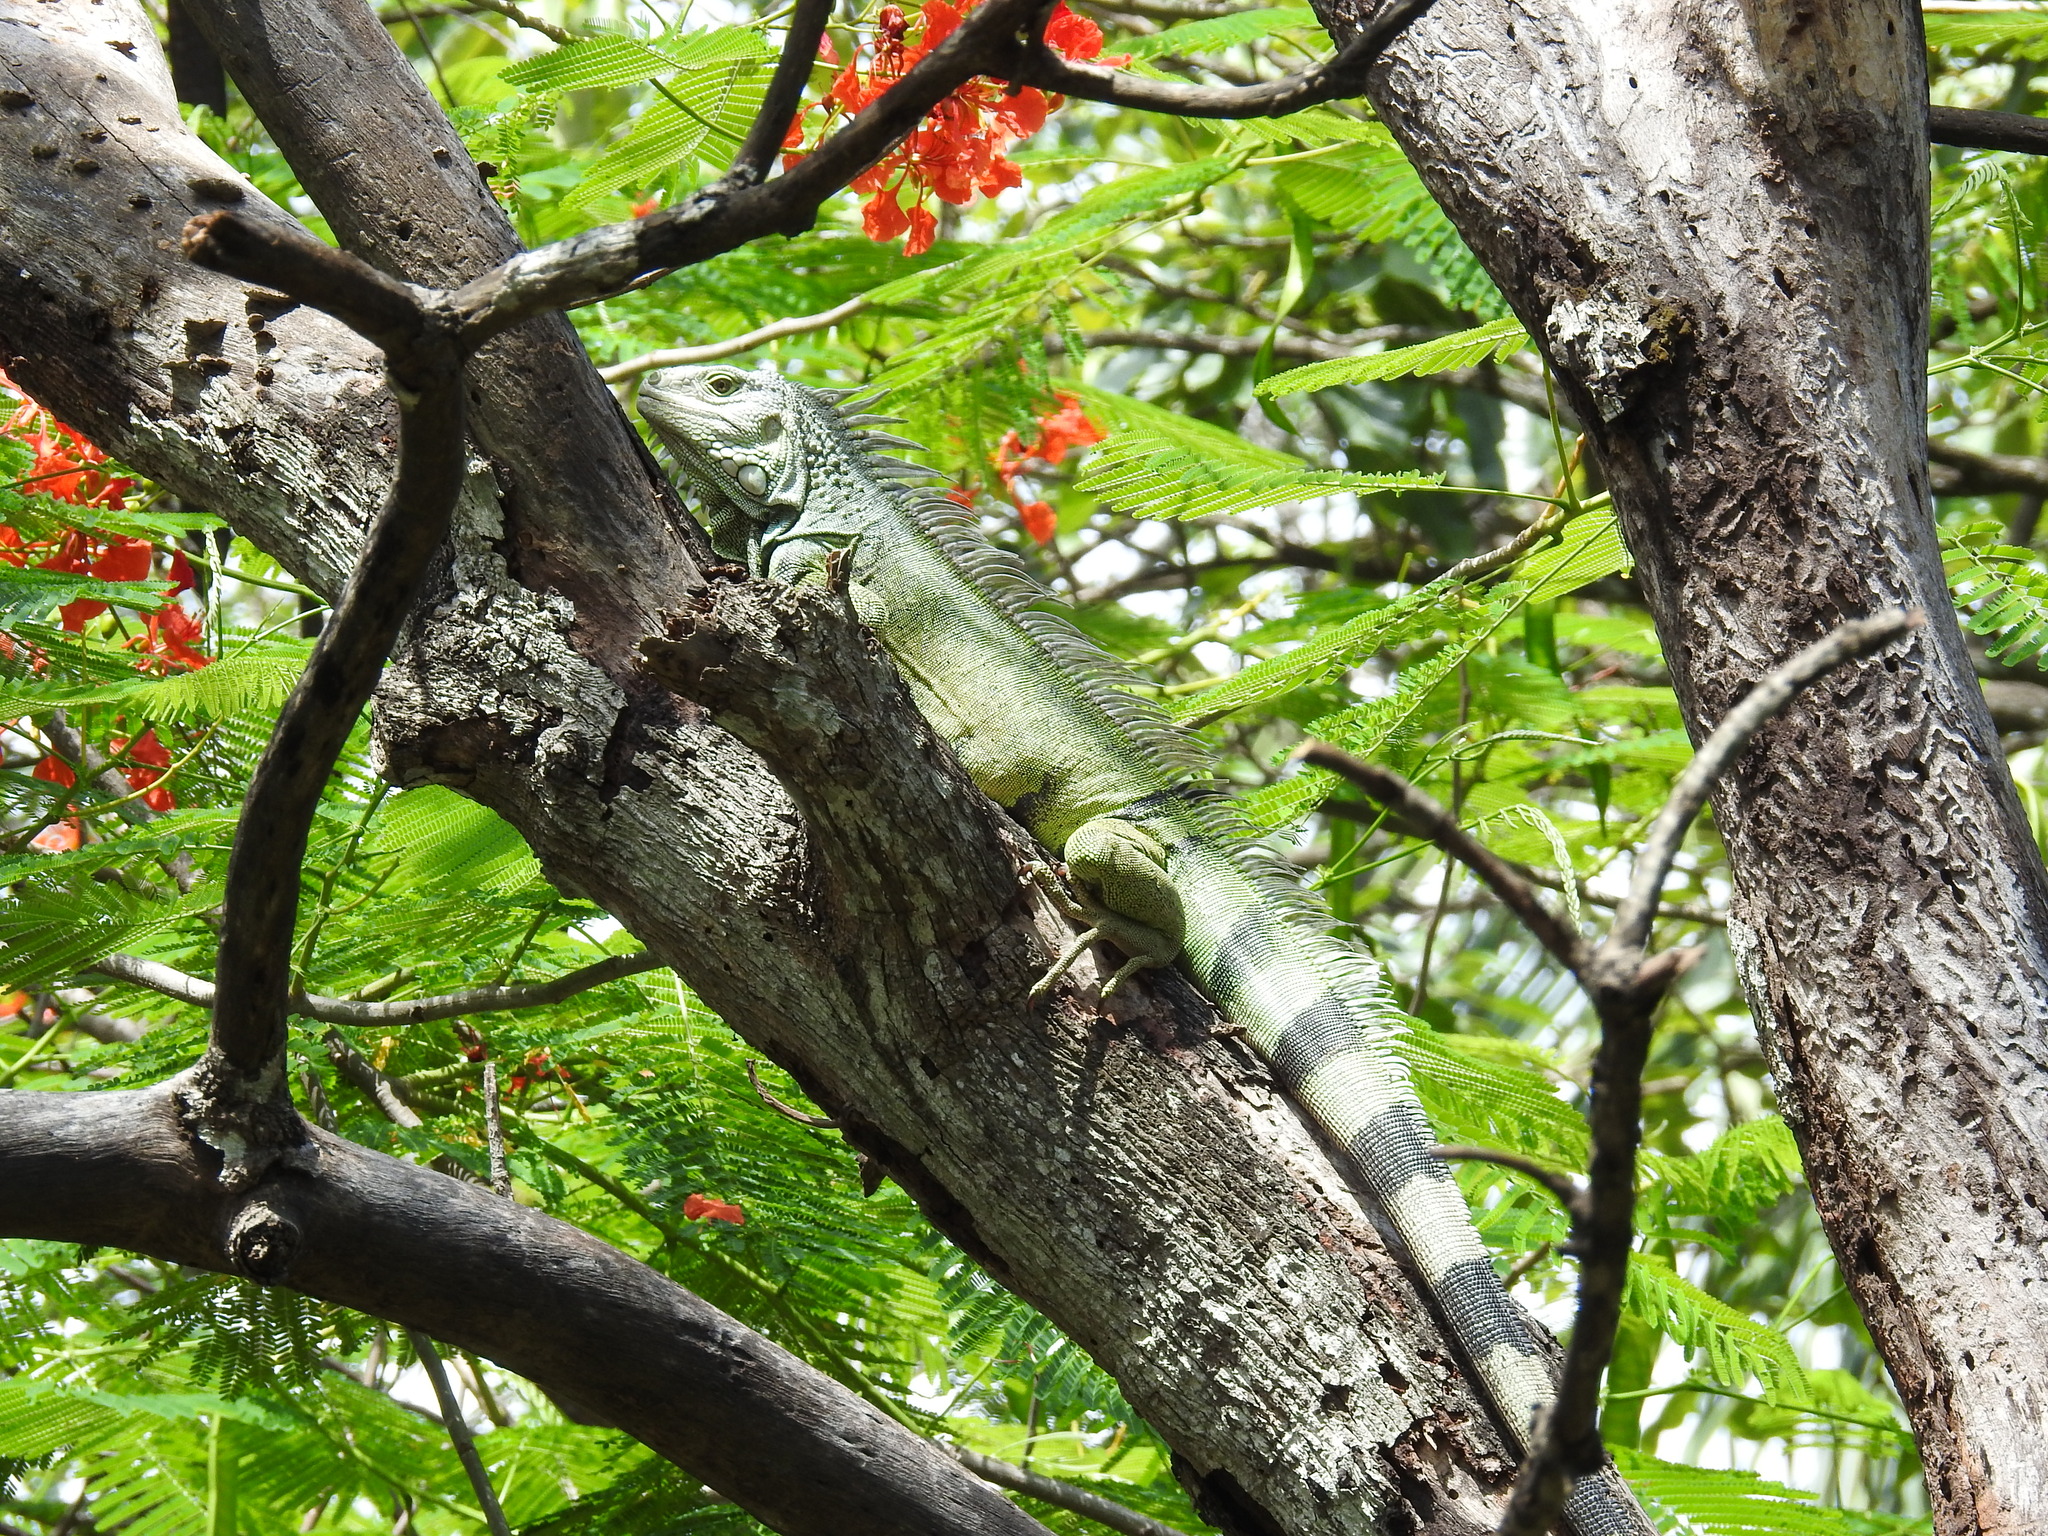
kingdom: Animalia
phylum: Chordata
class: Squamata
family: Iguanidae
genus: Iguana
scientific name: Iguana iguana
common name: Green iguana
